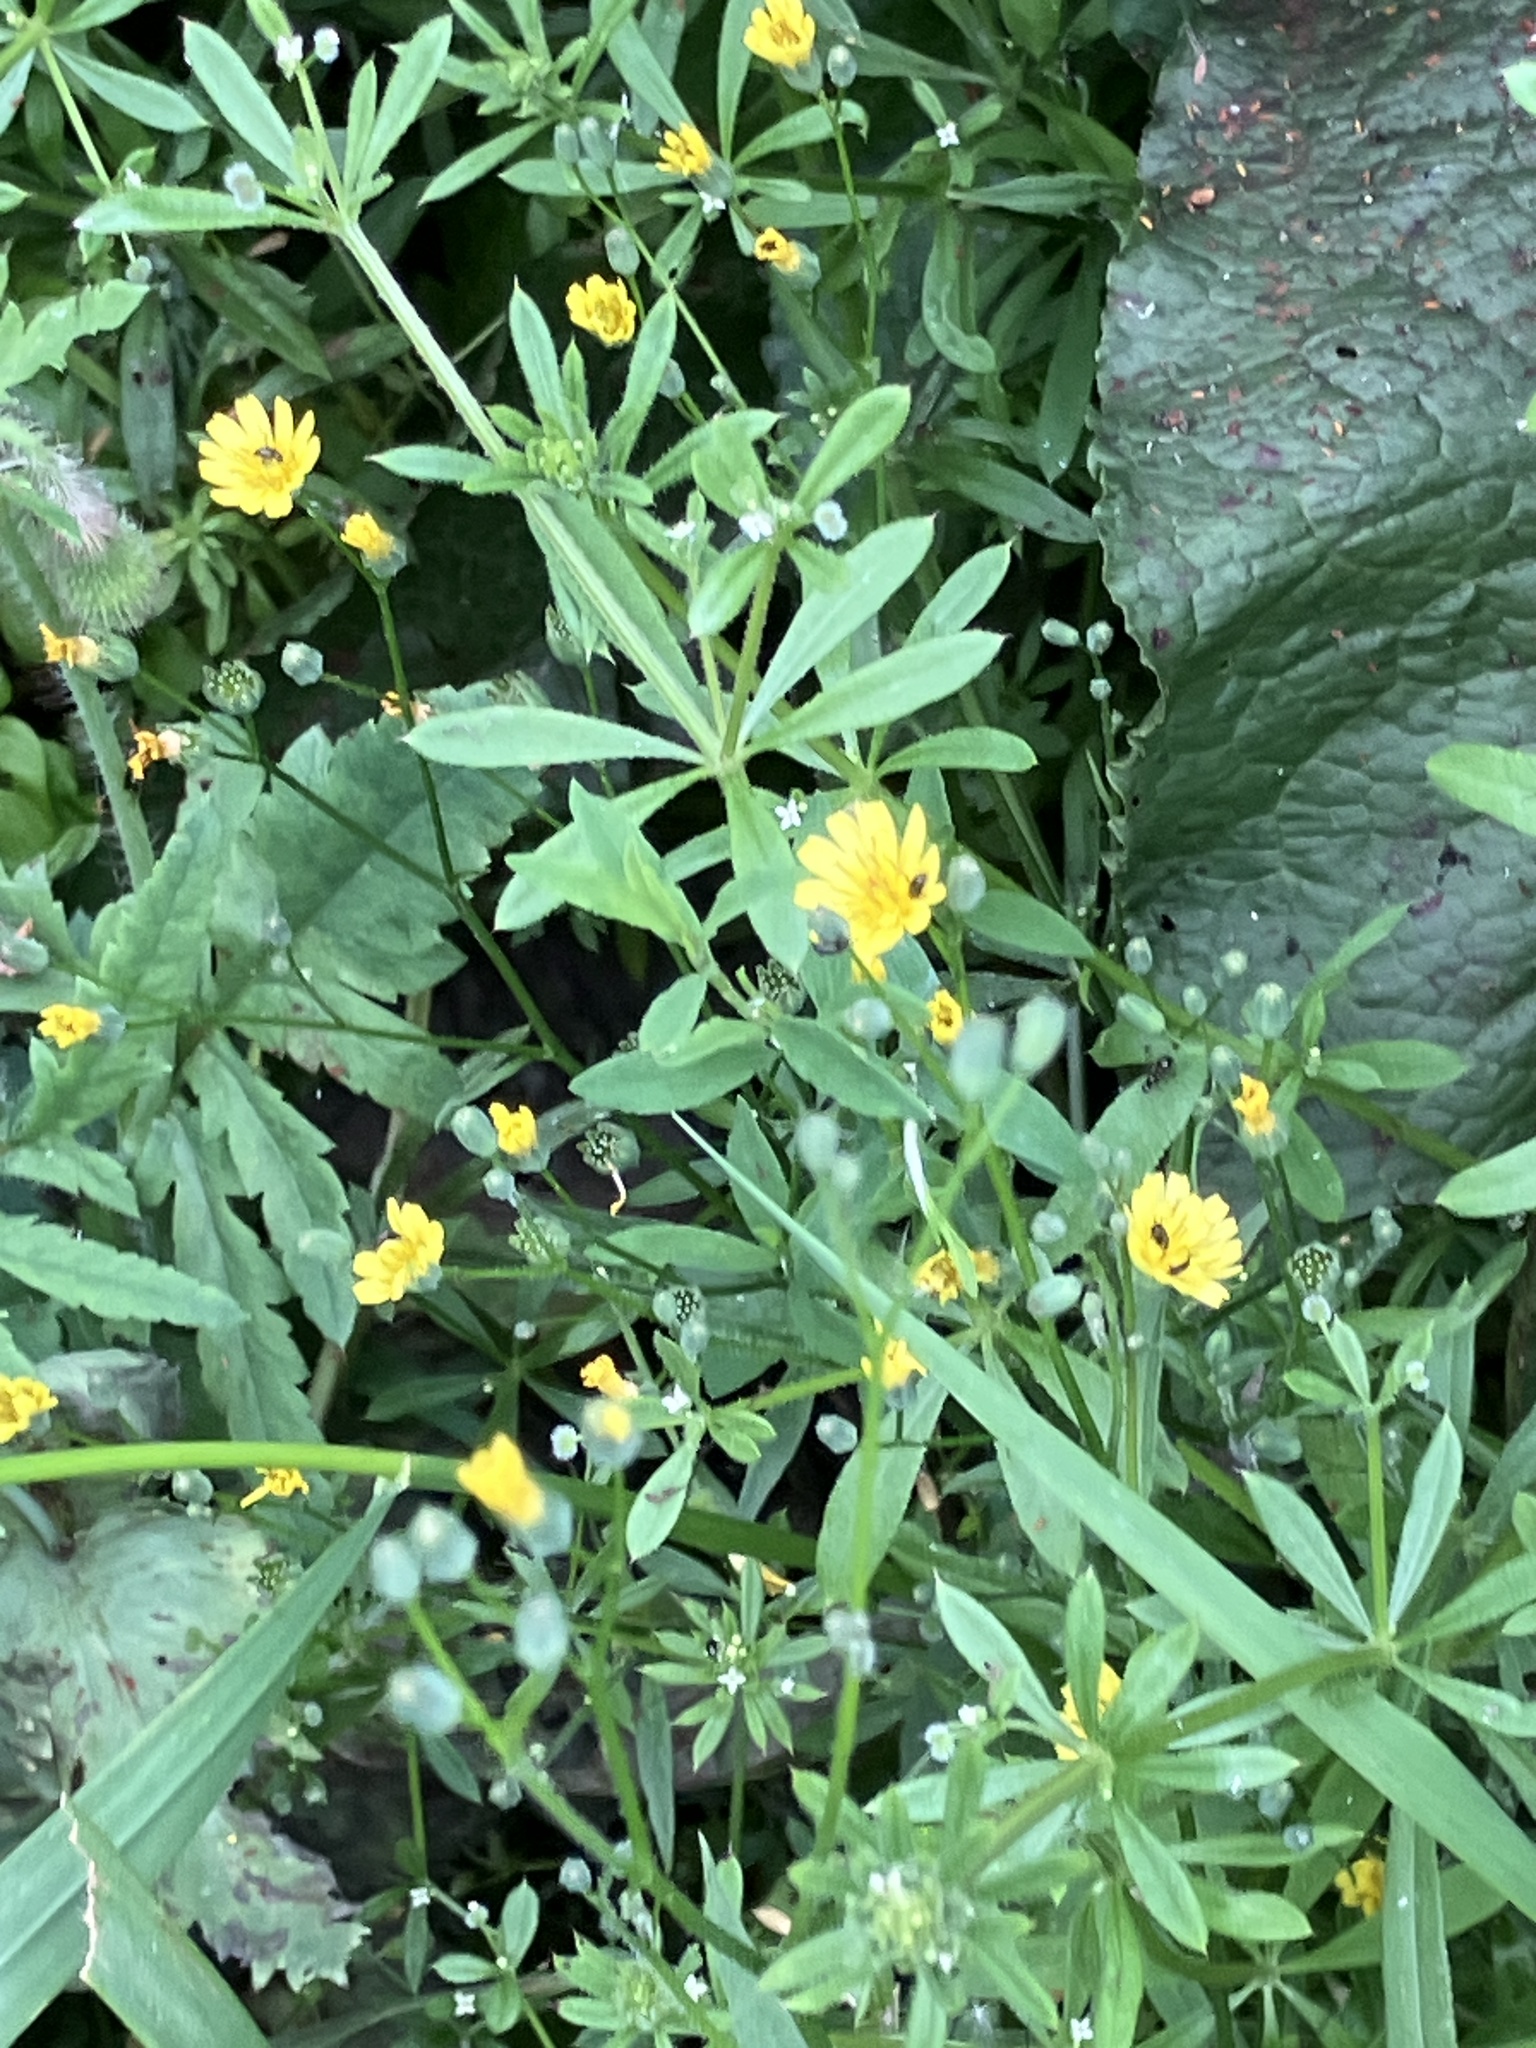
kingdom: Plantae
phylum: Tracheophyta
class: Magnoliopsida
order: Asterales
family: Asteraceae
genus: Lapsana
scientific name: Lapsana communis
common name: Nipplewort
